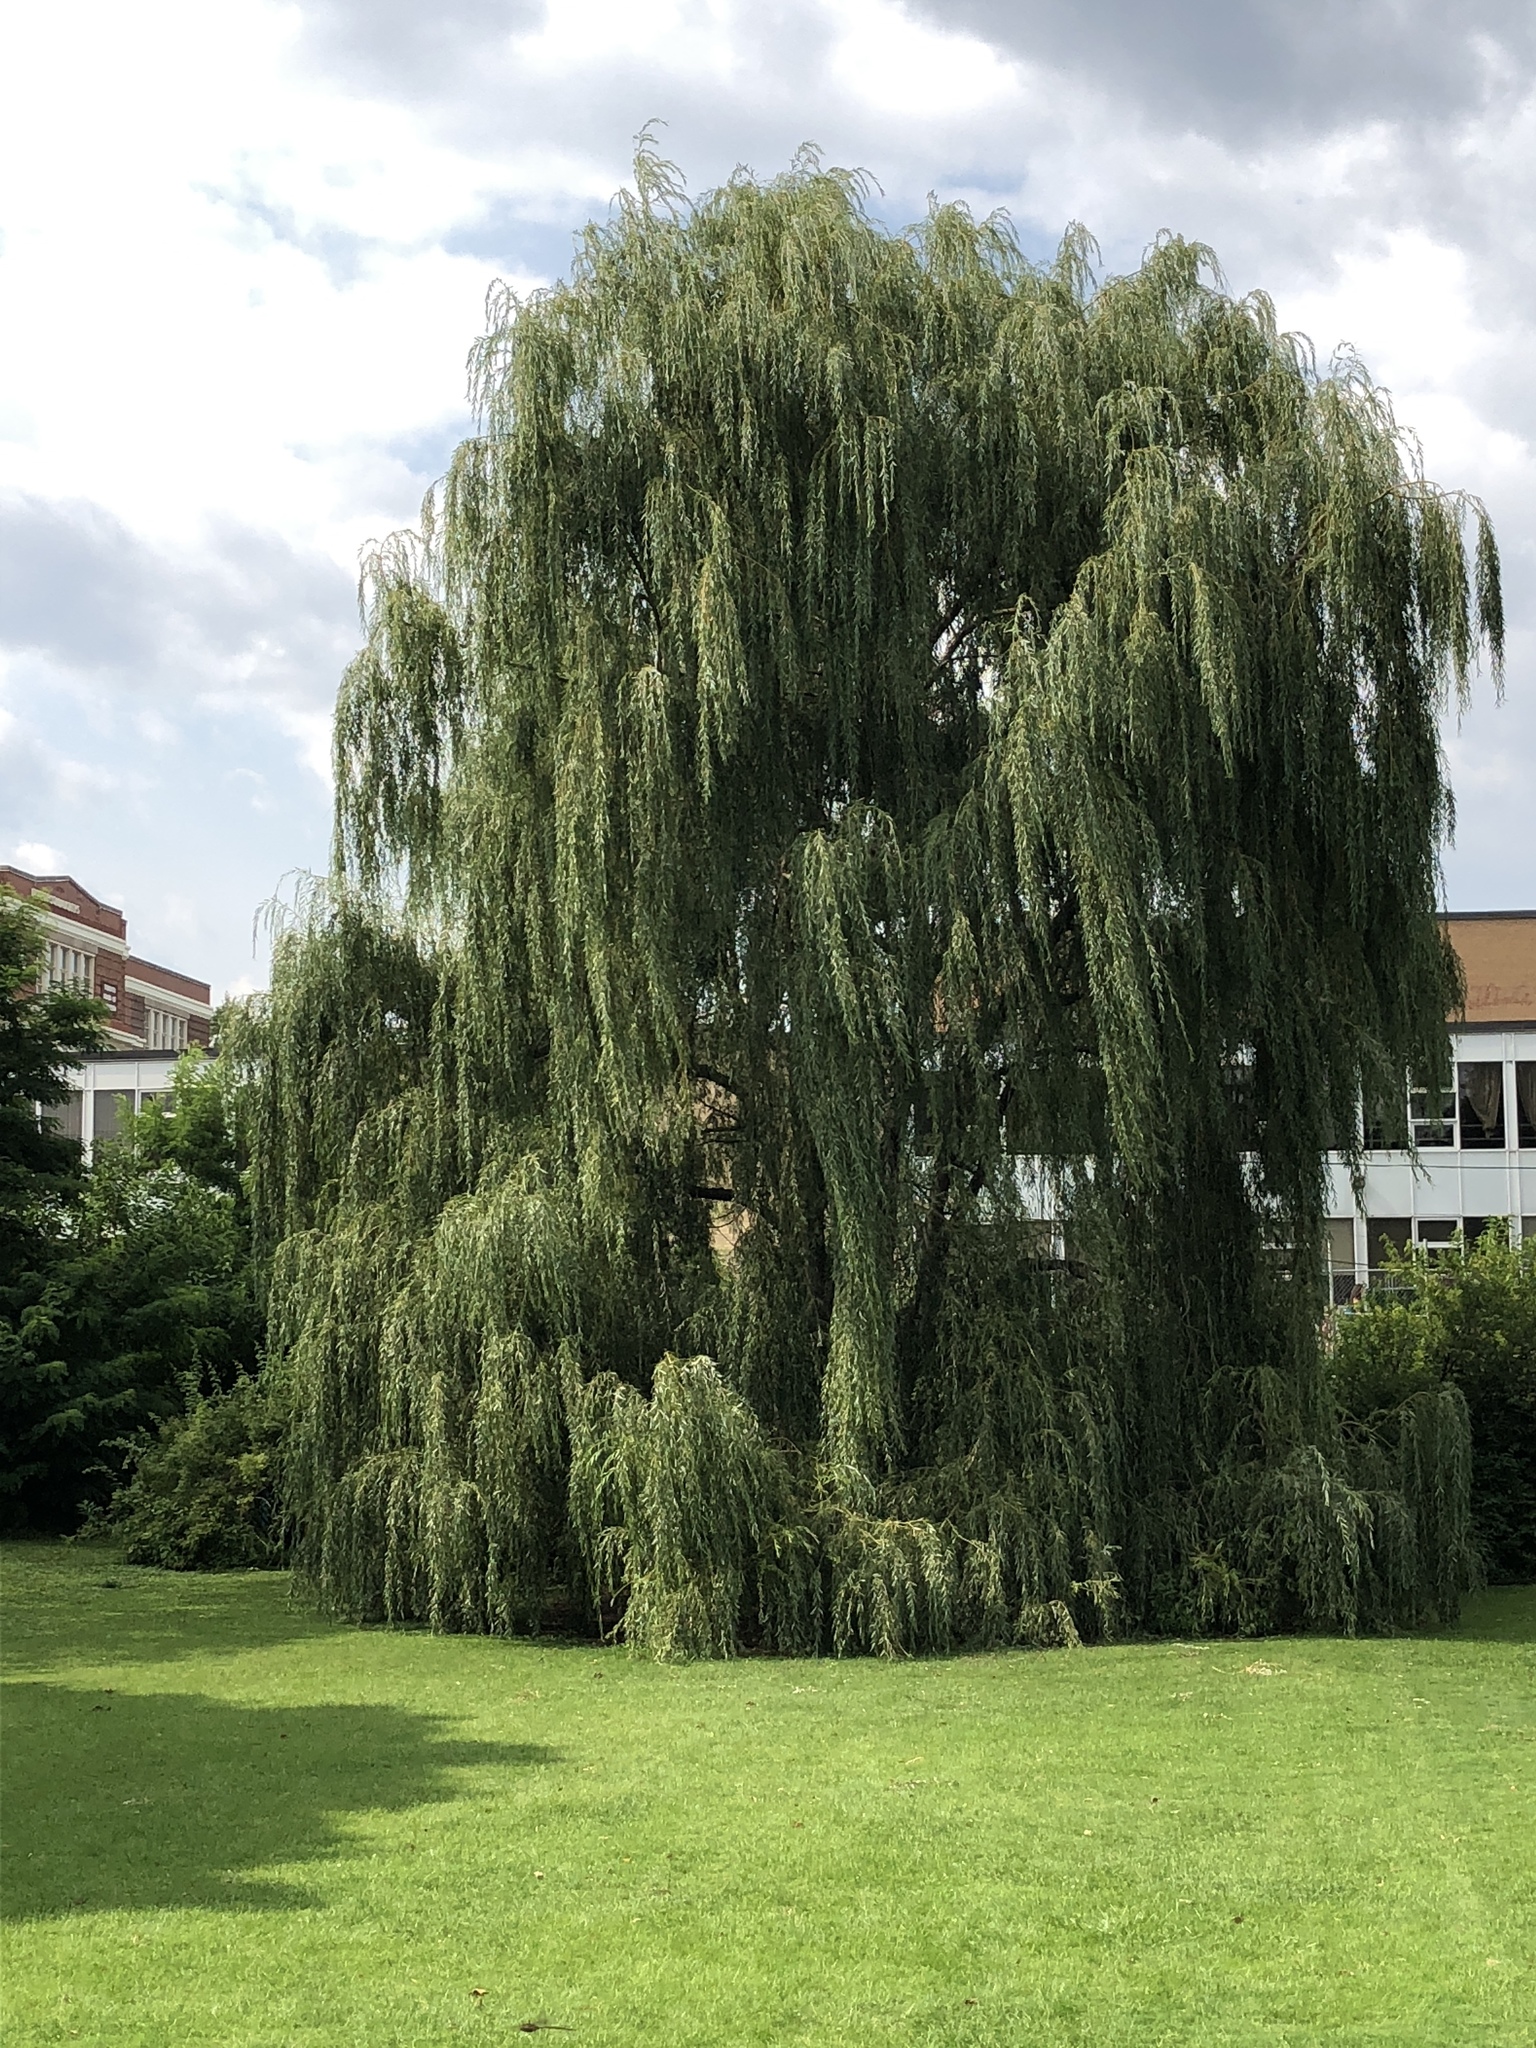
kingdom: Plantae
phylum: Tracheophyta
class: Magnoliopsida
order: Malpighiales
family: Salicaceae
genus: Salix
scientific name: Salix alba
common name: White willow
